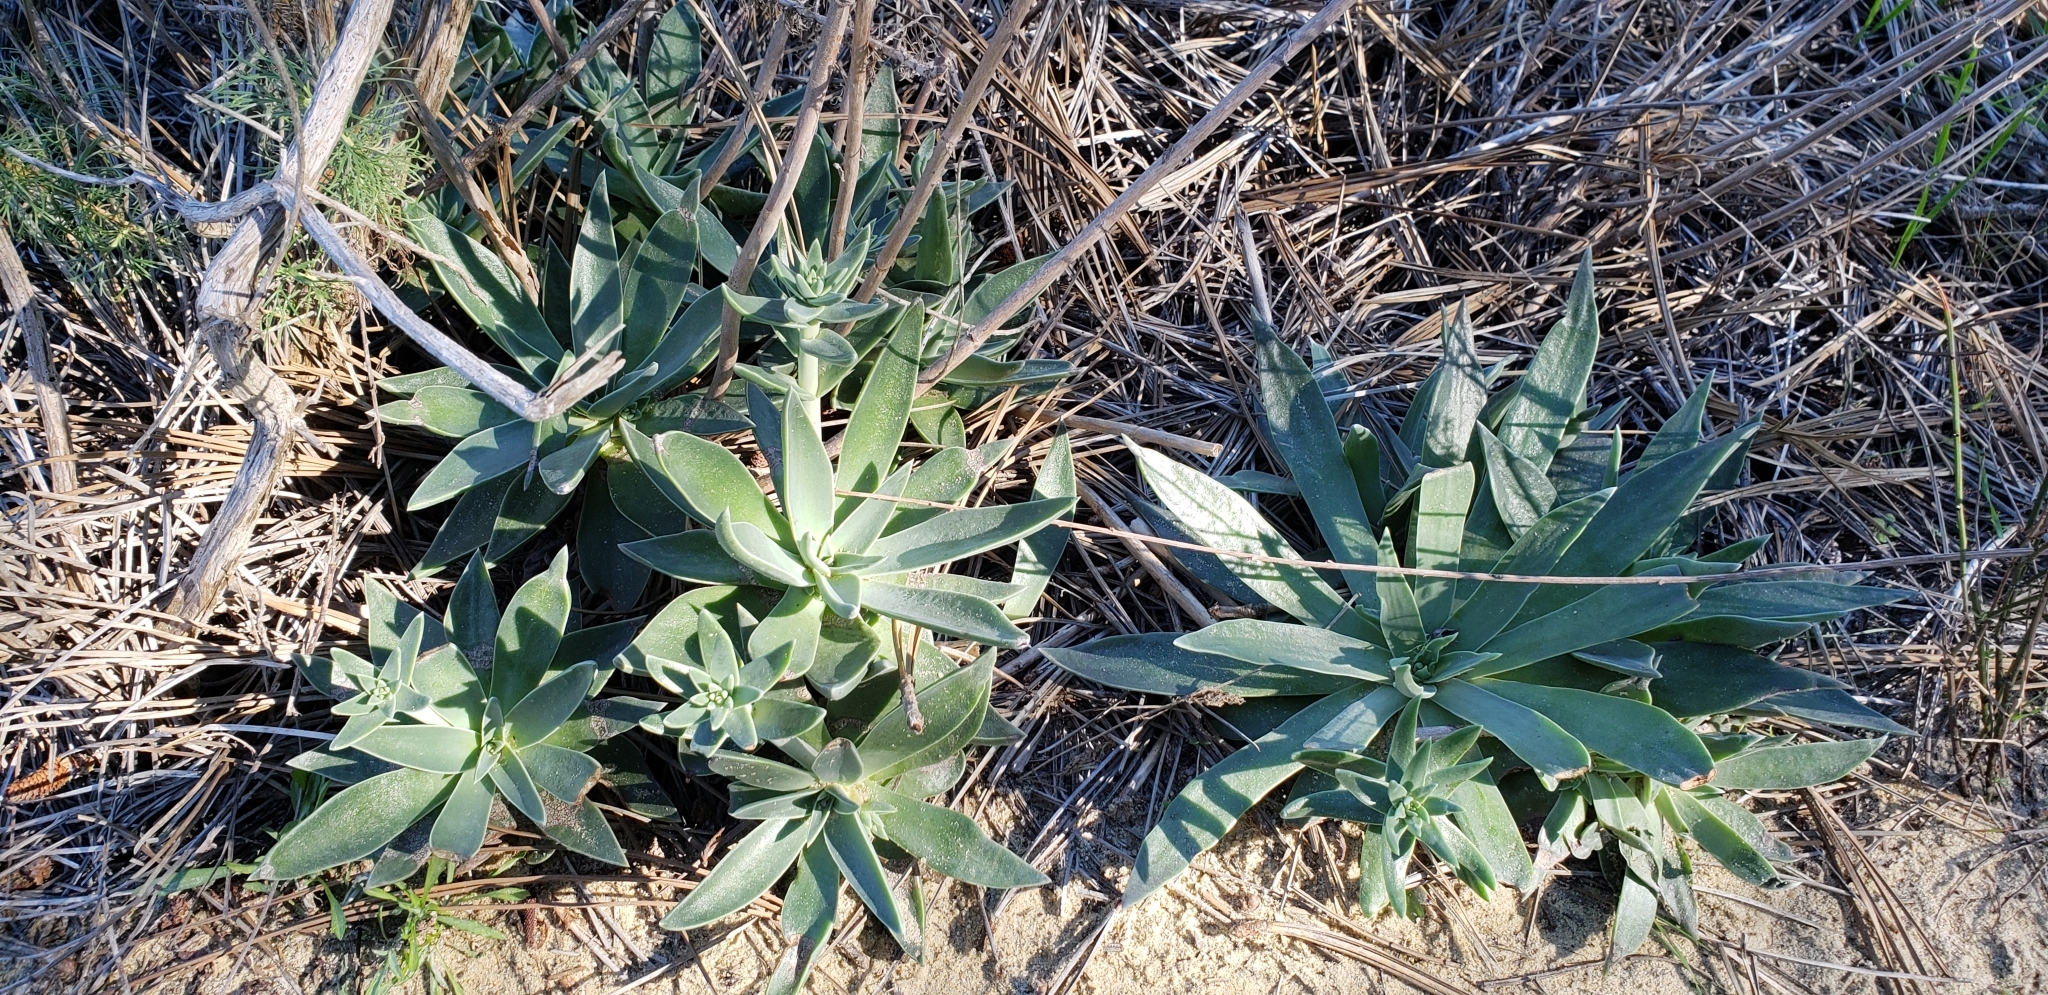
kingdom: Plantae
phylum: Tracheophyta
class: Magnoliopsida
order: Saxifragales
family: Crassulaceae
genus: Dudleya
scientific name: Dudleya lanceolata
